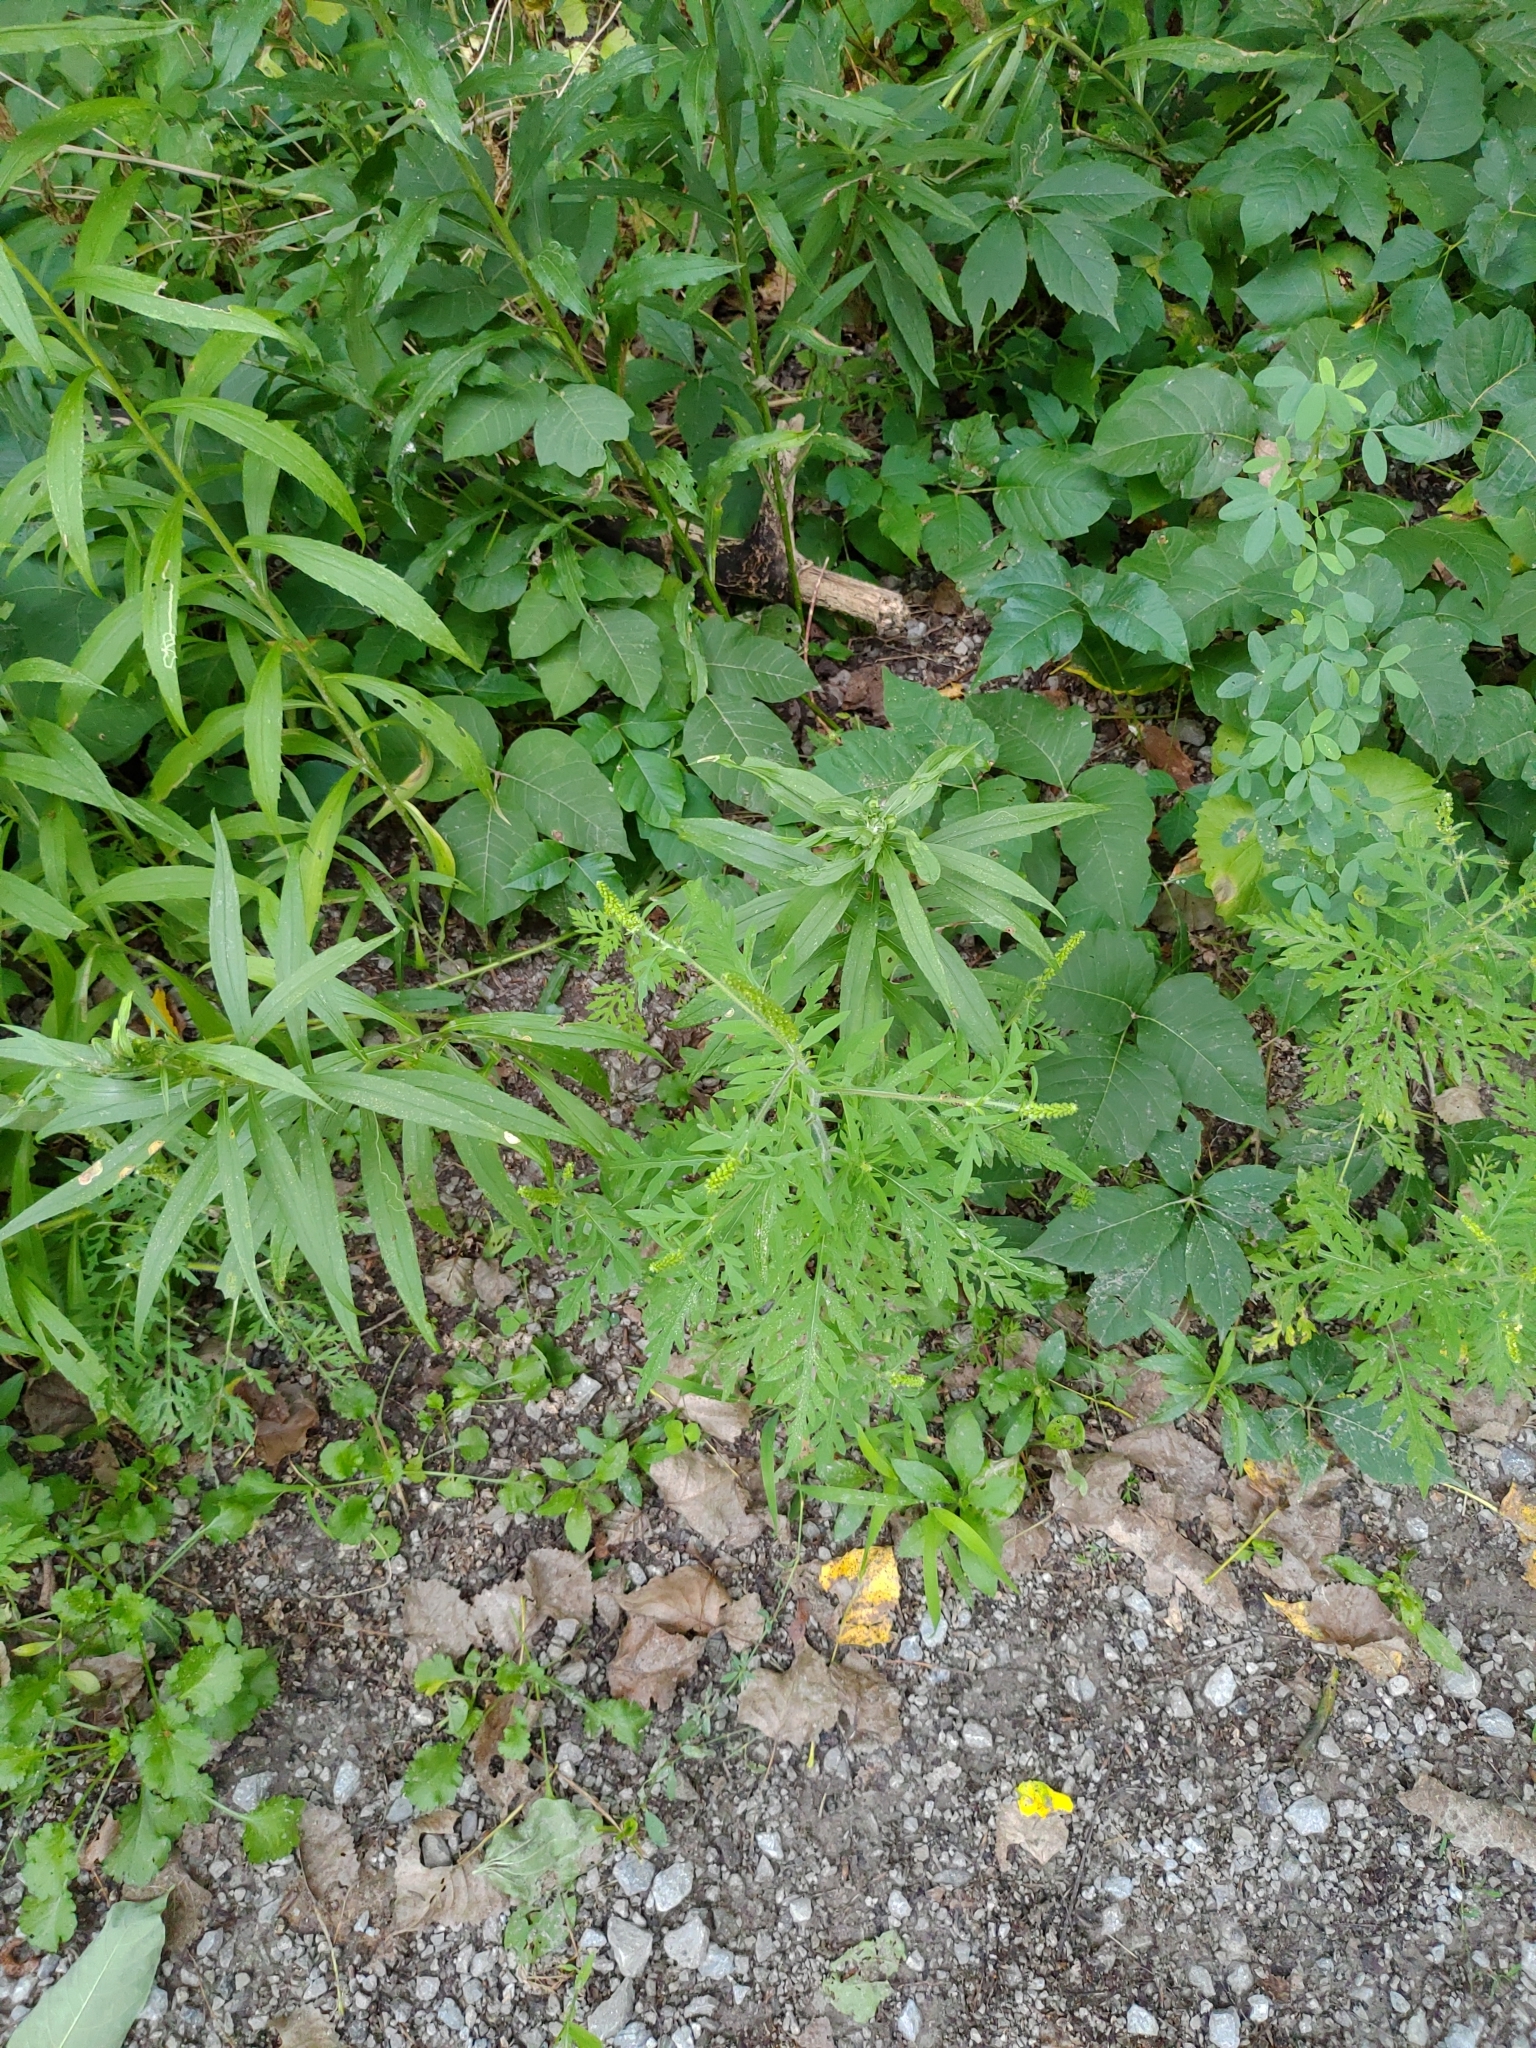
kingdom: Plantae
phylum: Tracheophyta
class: Magnoliopsida
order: Asterales
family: Asteraceae
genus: Ambrosia
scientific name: Ambrosia artemisiifolia
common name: Annual ragweed
